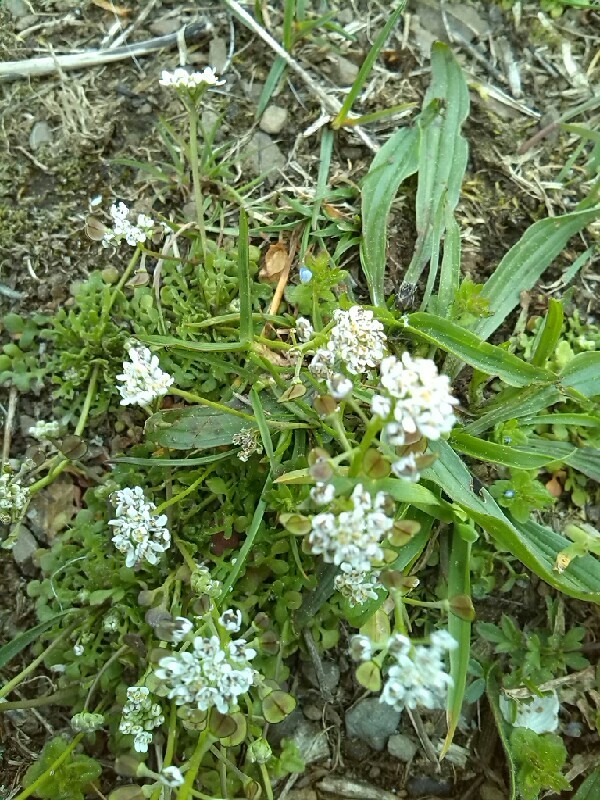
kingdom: Plantae
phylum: Tracheophyta
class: Magnoliopsida
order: Brassicales
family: Brassicaceae
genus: Teesdalia
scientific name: Teesdalia nudicaulis
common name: Shepherd's cress
